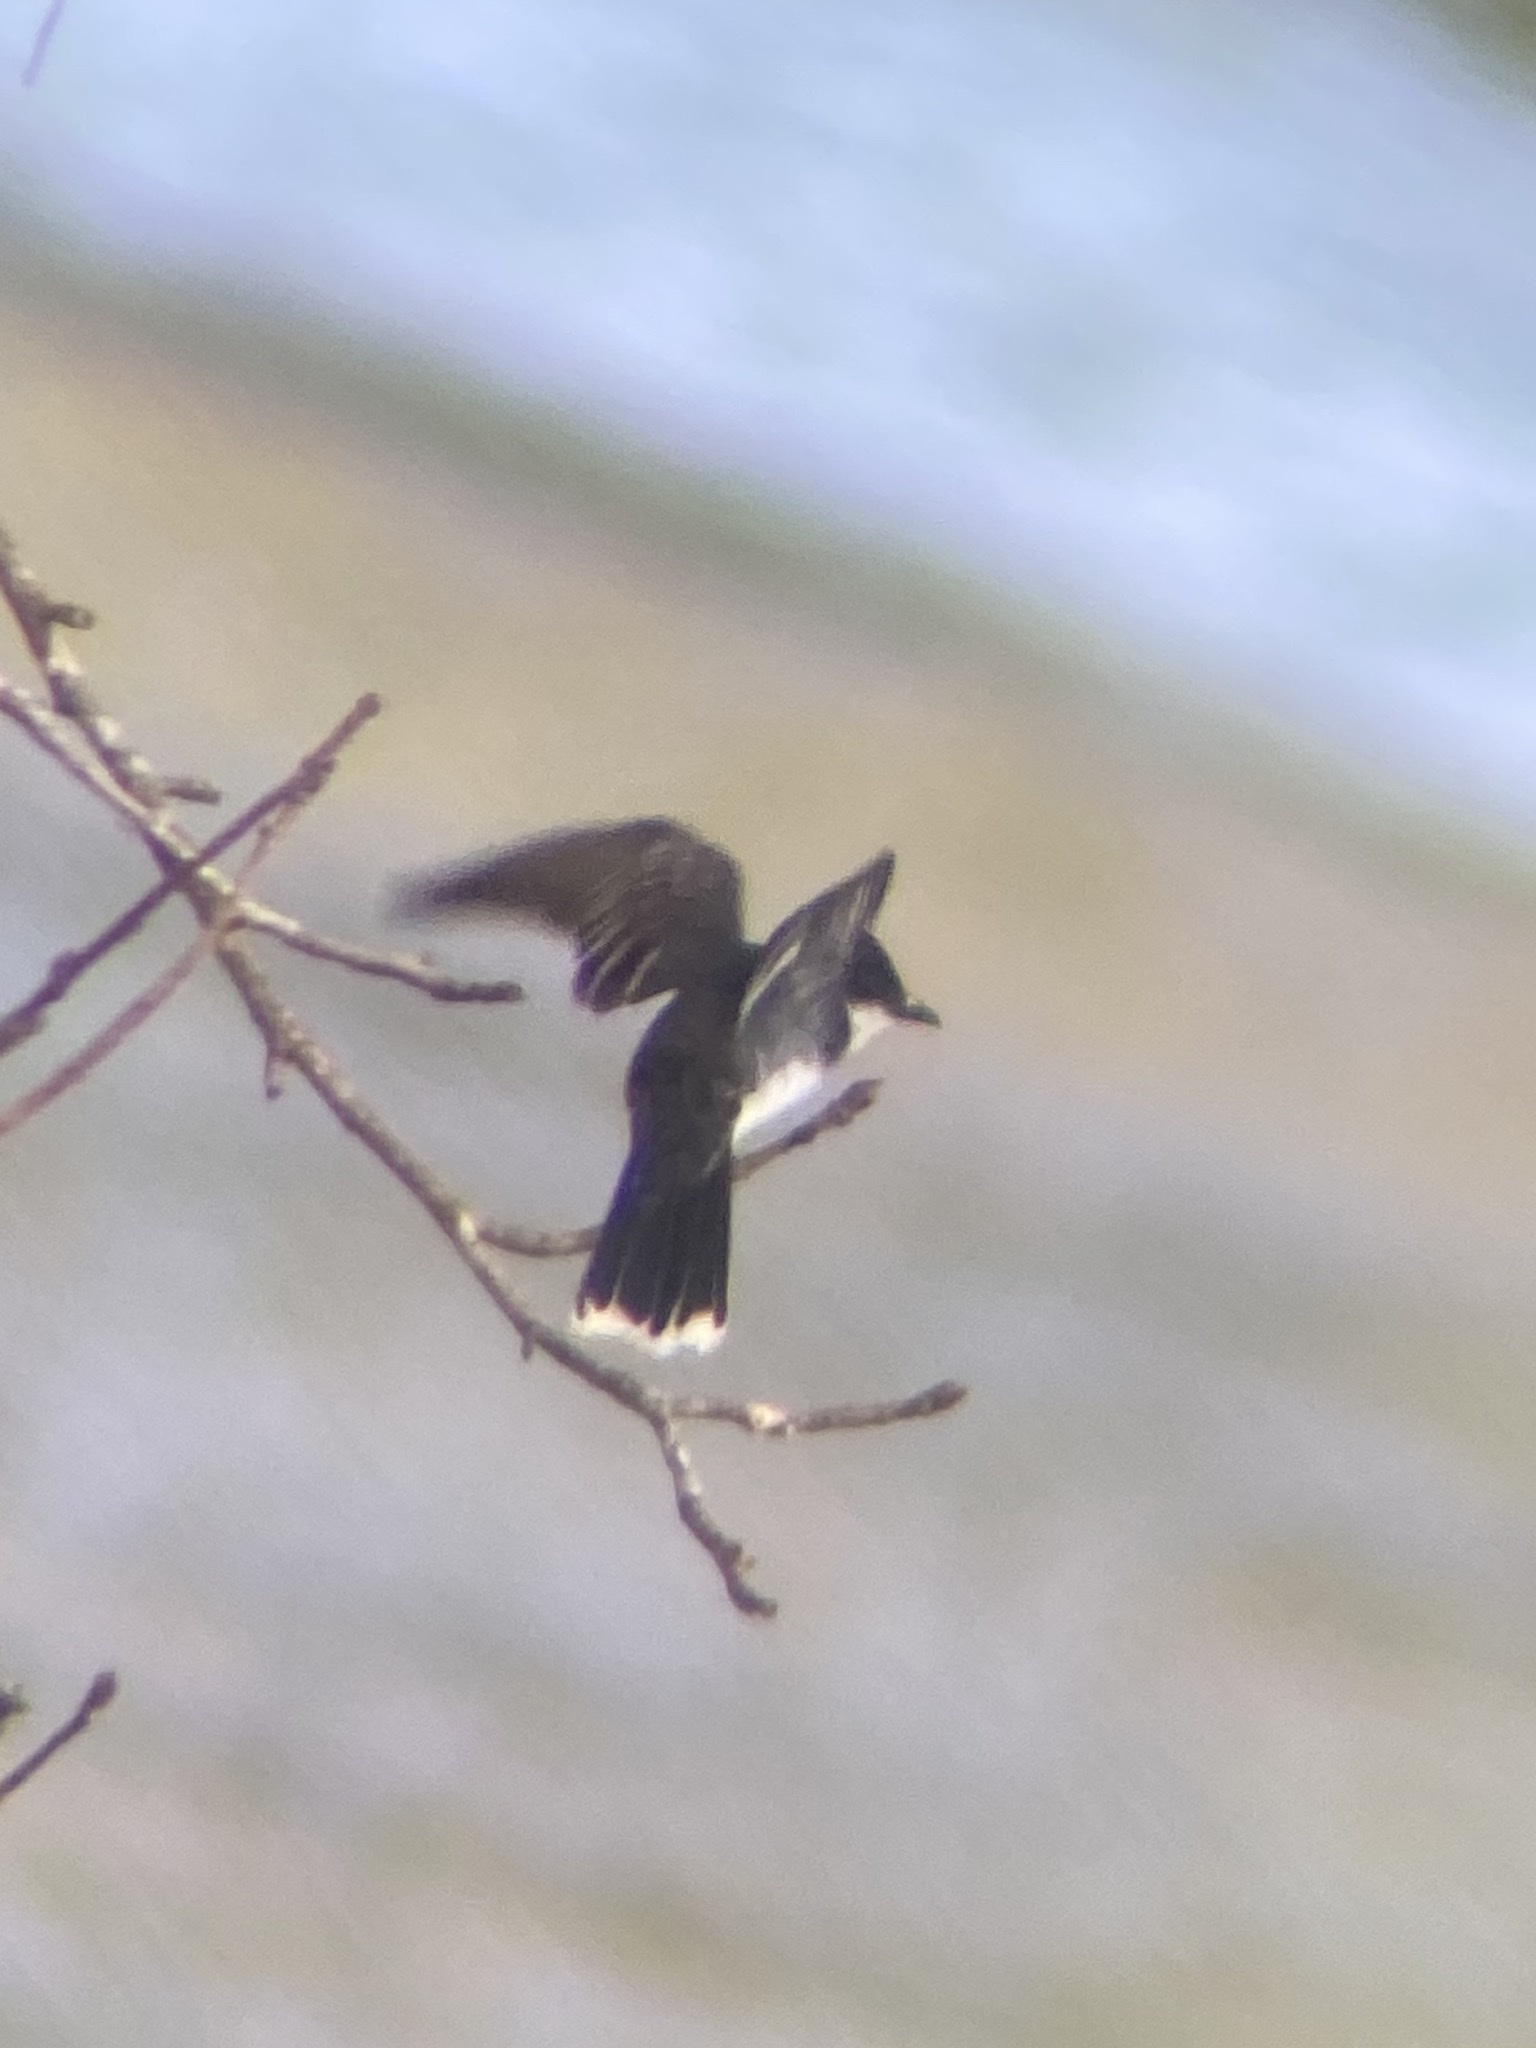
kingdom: Animalia
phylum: Chordata
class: Aves
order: Passeriformes
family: Tyrannidae
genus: Tyrannus
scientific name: Tyrannus tyrannus
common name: Eastern kingbird
